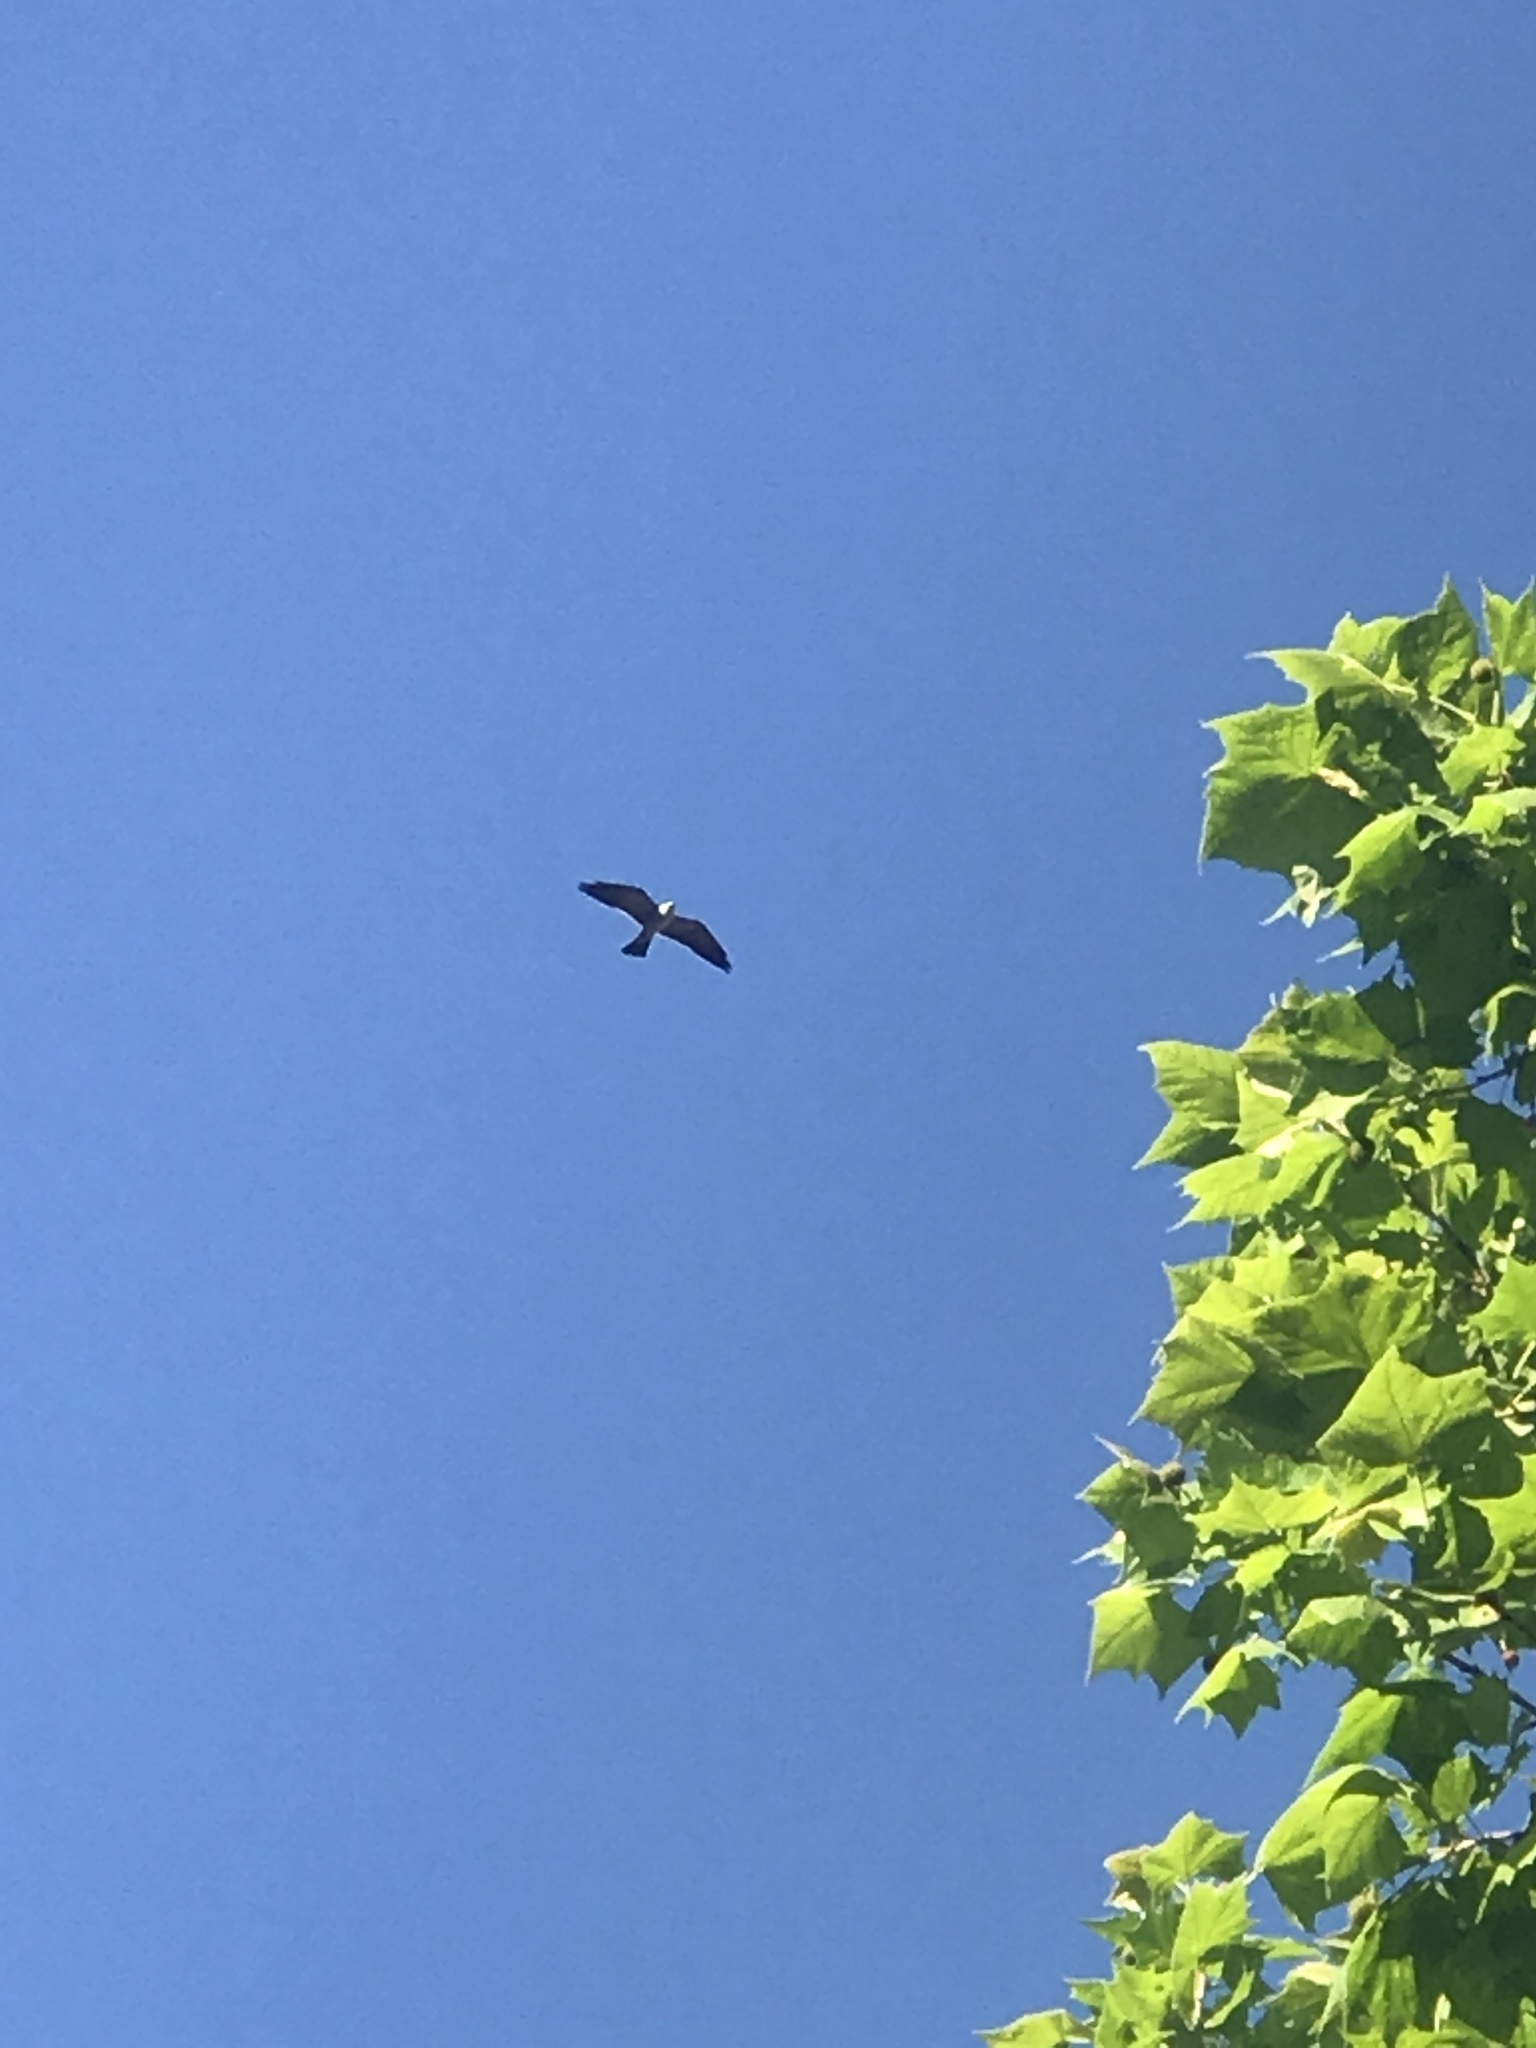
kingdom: Animalia
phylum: Chordata
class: Aves
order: Accipitriformes
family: Accipitridae
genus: Ictinia
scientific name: Ictinia mississippiensis
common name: Mississippi kite
